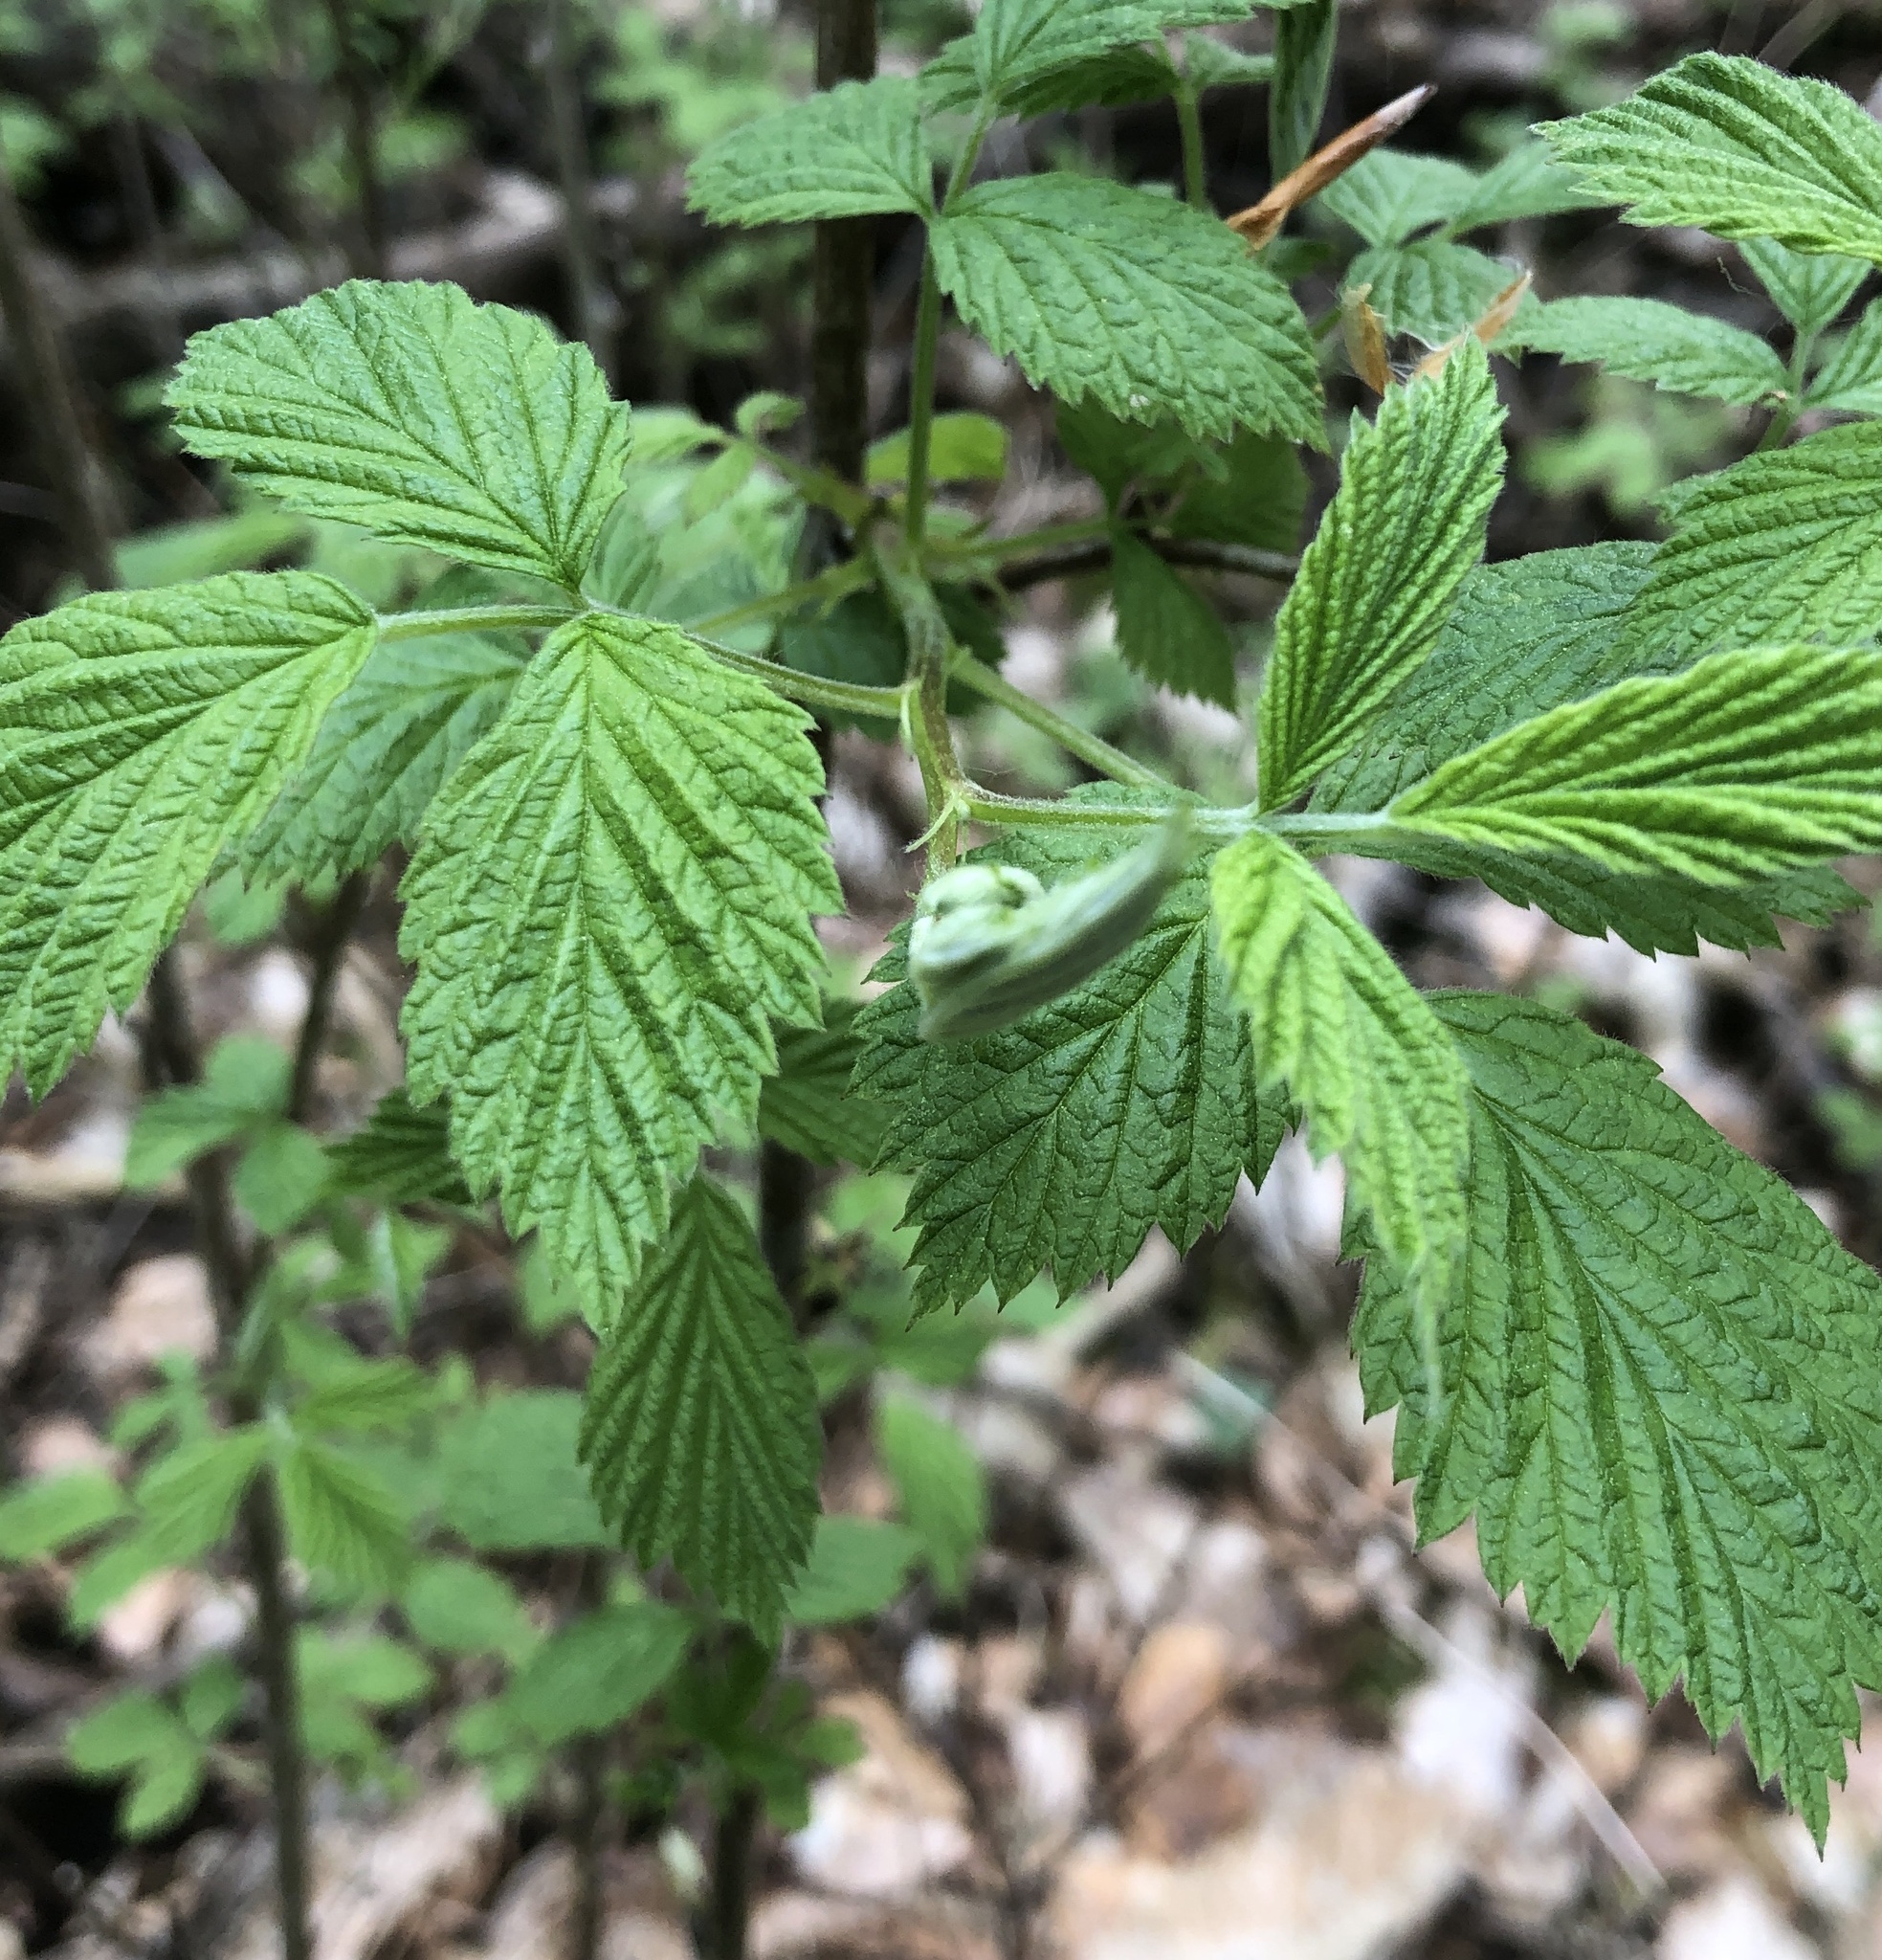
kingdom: Plantae
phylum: Tracheophyta
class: Magnoliopsida
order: Rosales
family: Rosaceae
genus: Rubus
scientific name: Rubus idaeus
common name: Raspberry
